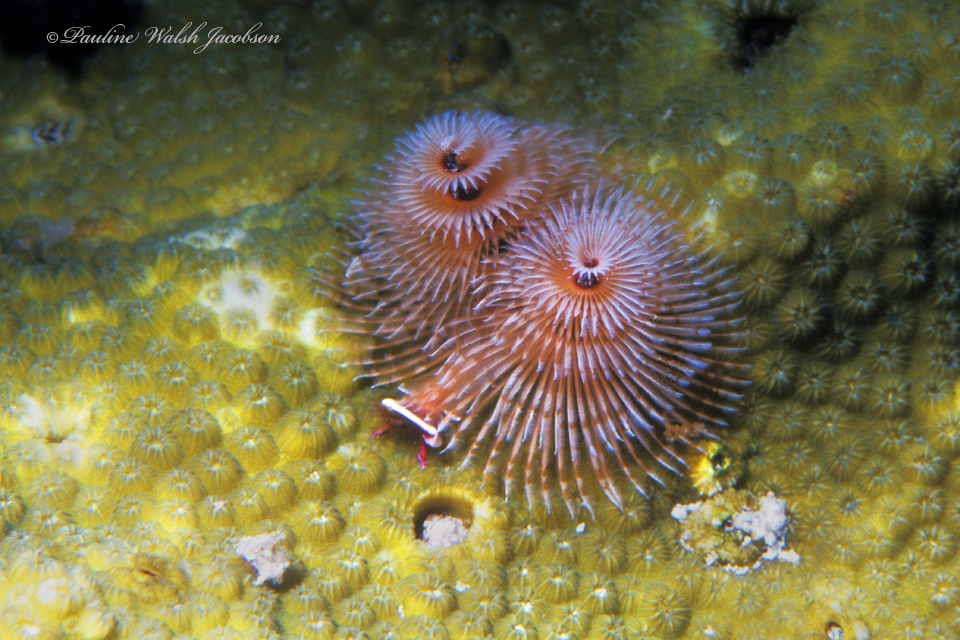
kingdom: Animalia
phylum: Annelida
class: Polychaeta
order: Sabellida
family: Serpulidae
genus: Spirobranchus
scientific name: Spirobranchus giganteus
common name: Christmas tree worm
